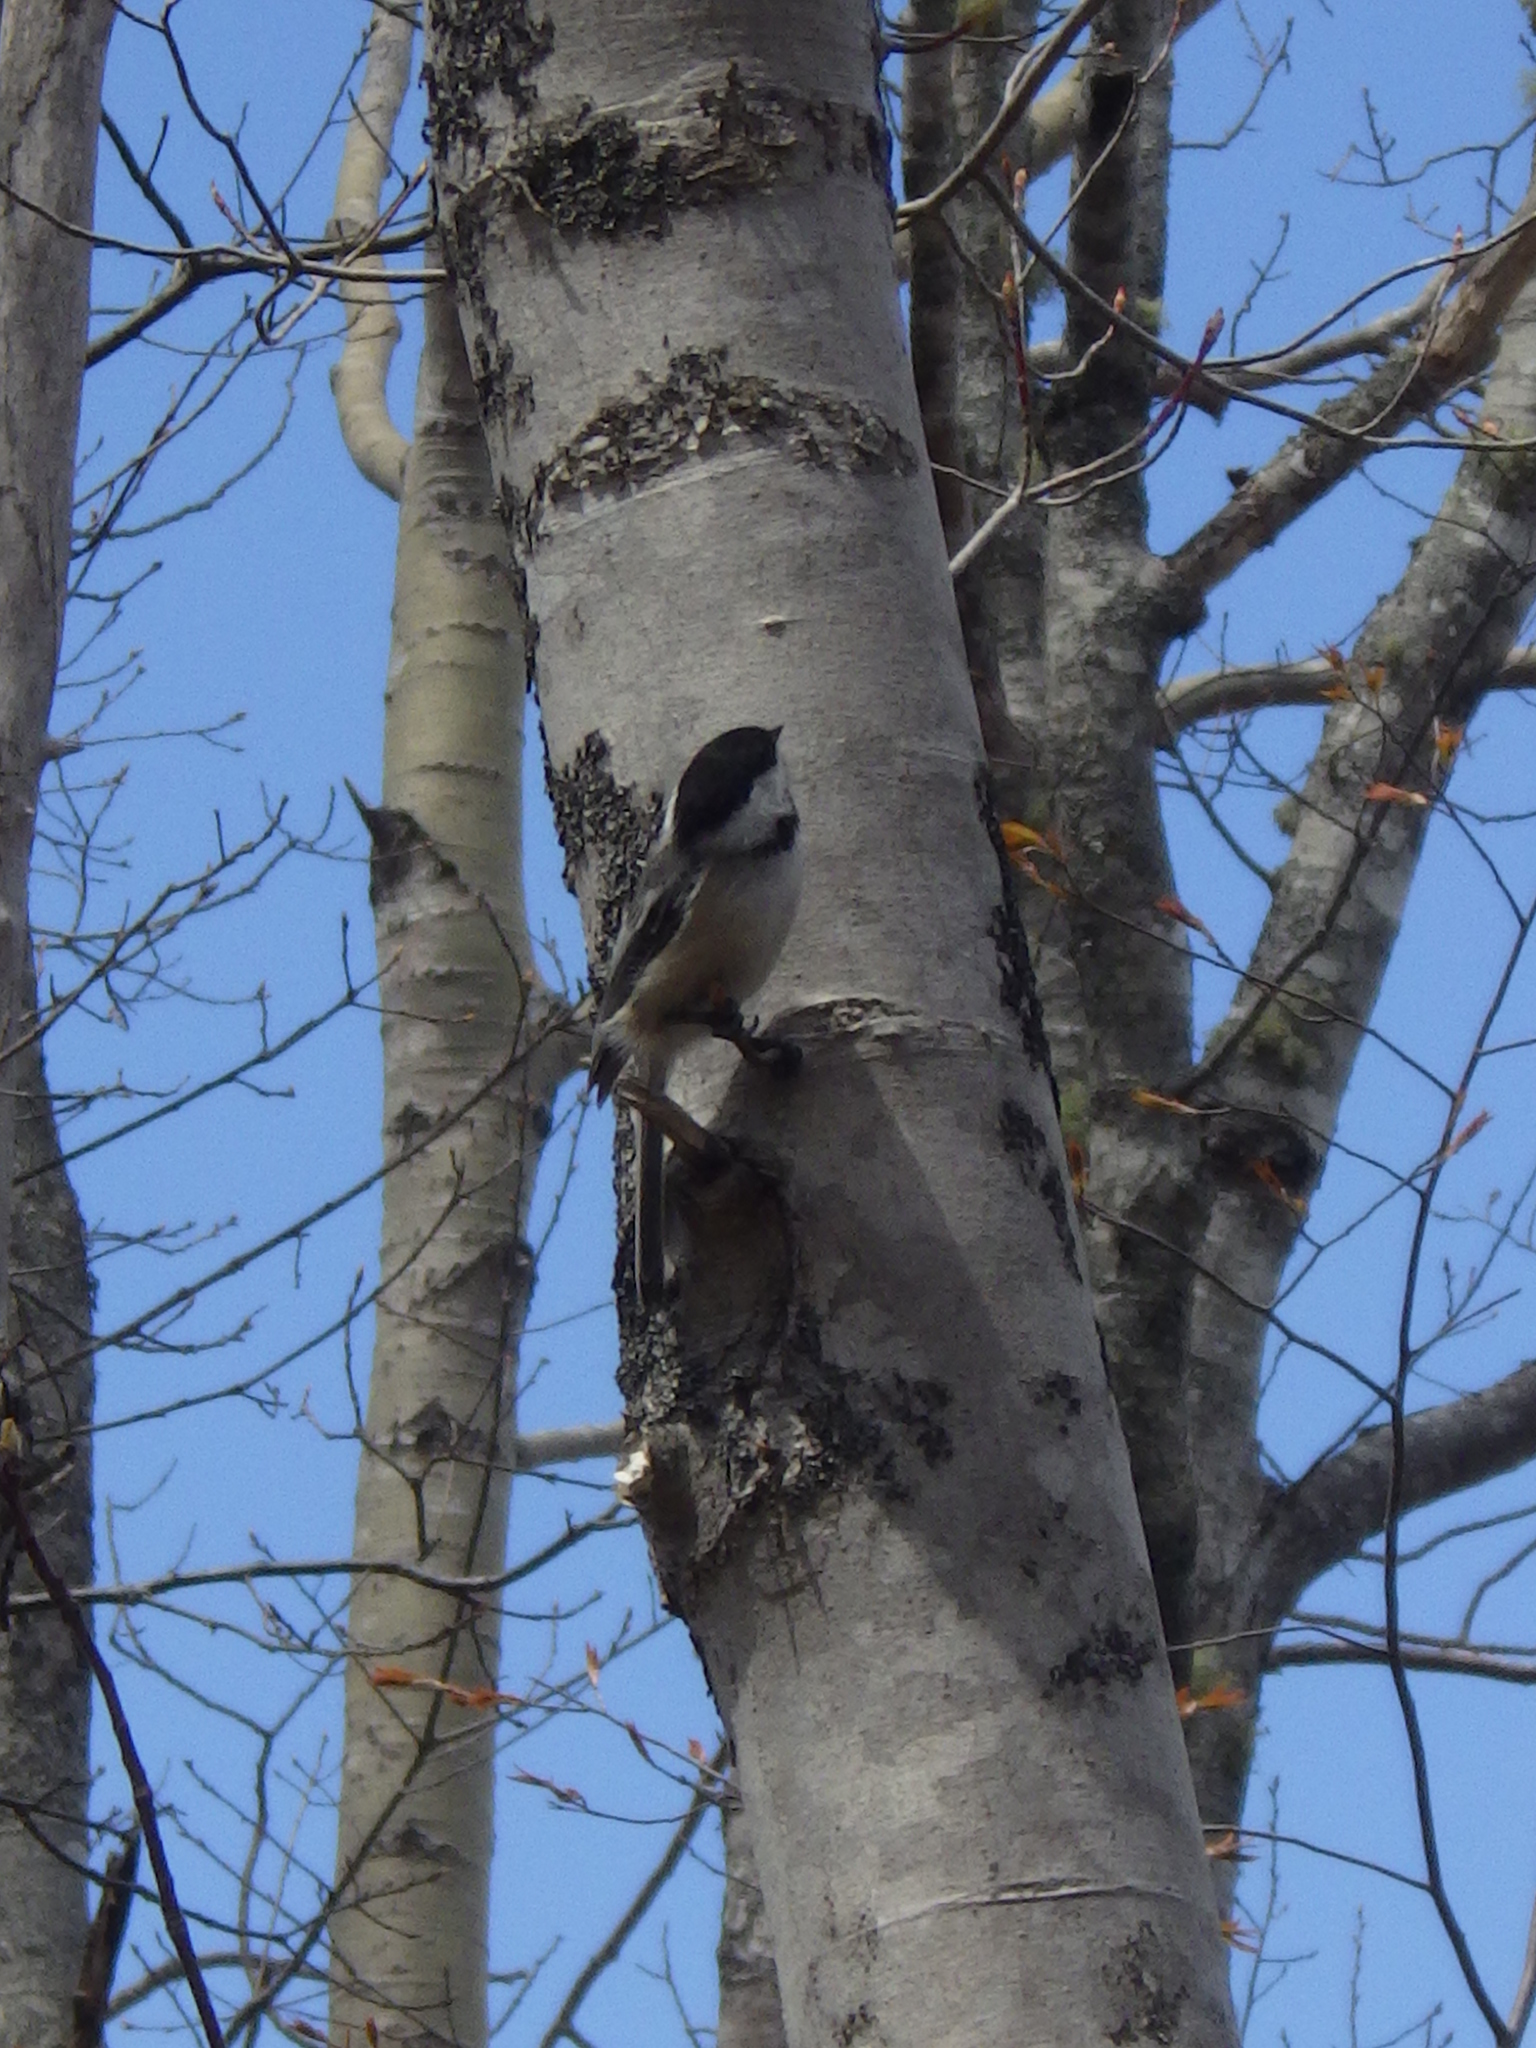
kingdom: Animalia
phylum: Chordata
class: Aves
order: Passeriformes
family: Paridae
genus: Poecile
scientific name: Poecile atricapillus
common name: Black-capped chickadee
